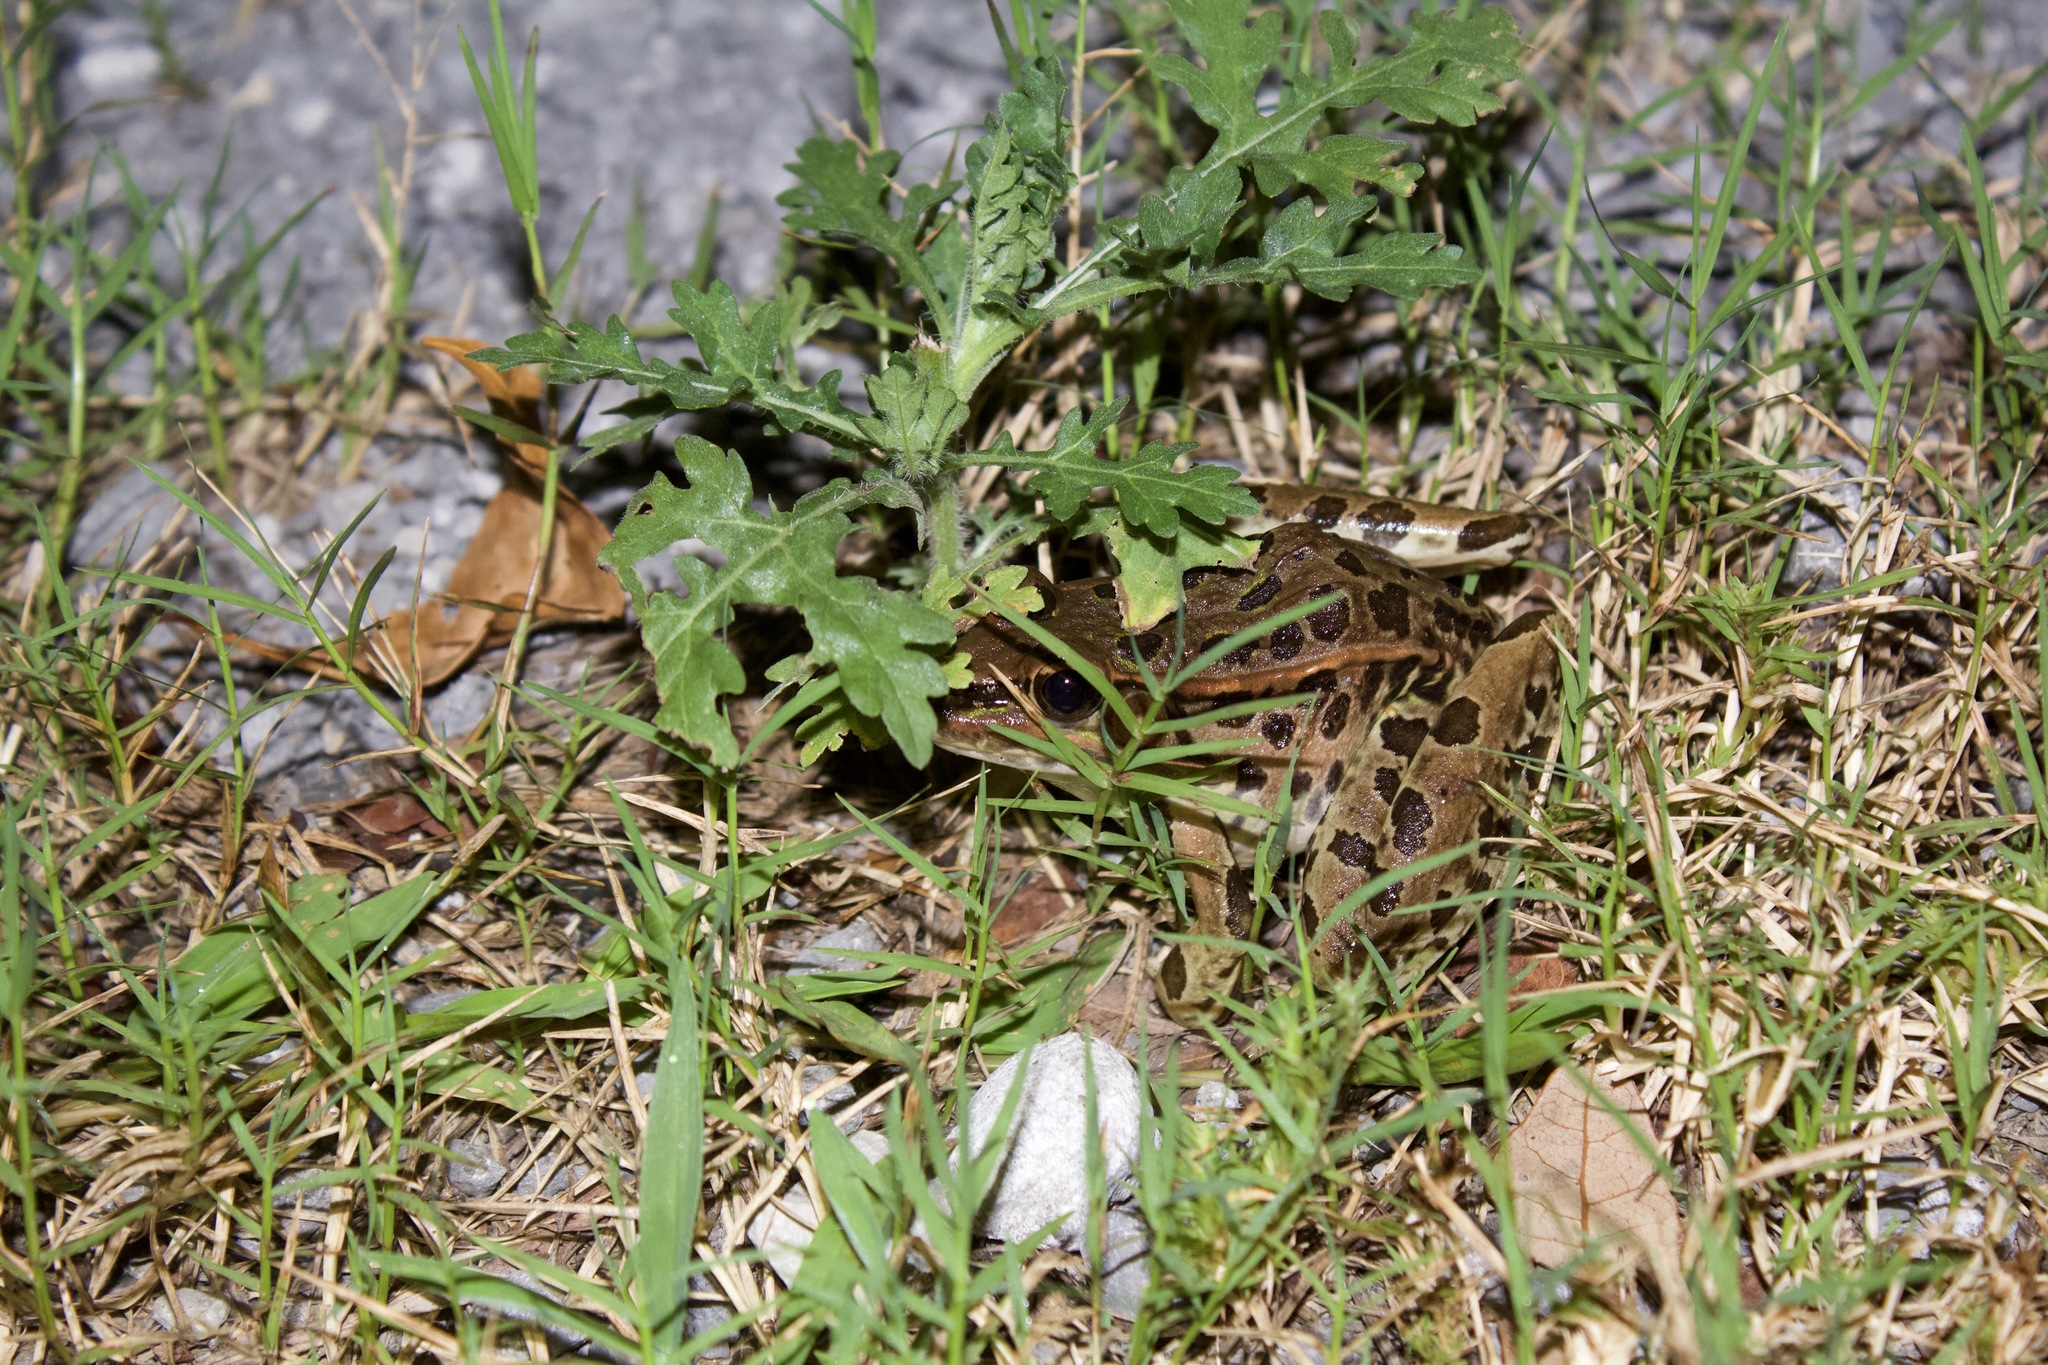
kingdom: Animalia
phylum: Chordata
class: Amphibia
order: Anura
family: Ranidae
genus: Lithobates
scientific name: Lithobates sphenocephalus
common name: Southern leopard frog
